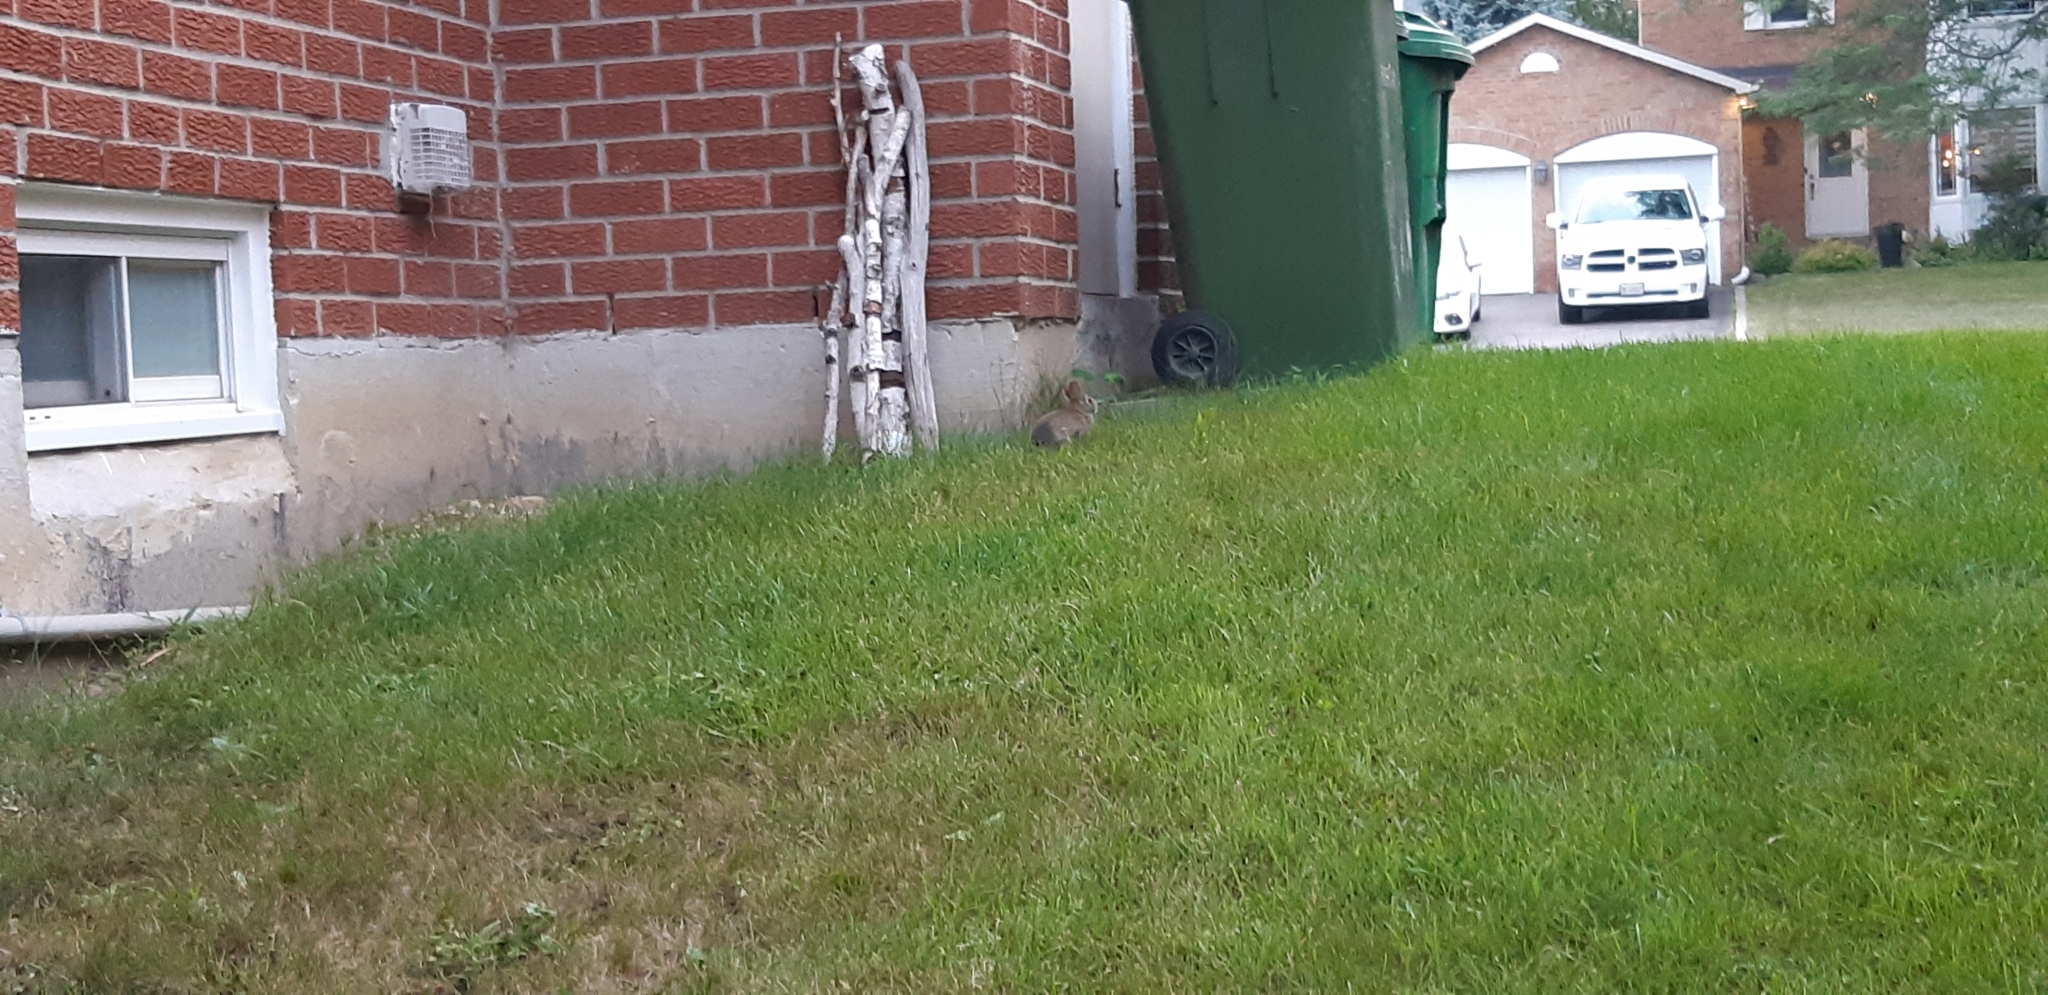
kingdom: Animalia
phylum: Chordata
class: Mammalia
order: Lagomorpha
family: Leporidae
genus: Sylvilagus
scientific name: Sylvilagus floridanus
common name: Eastern cottontail
